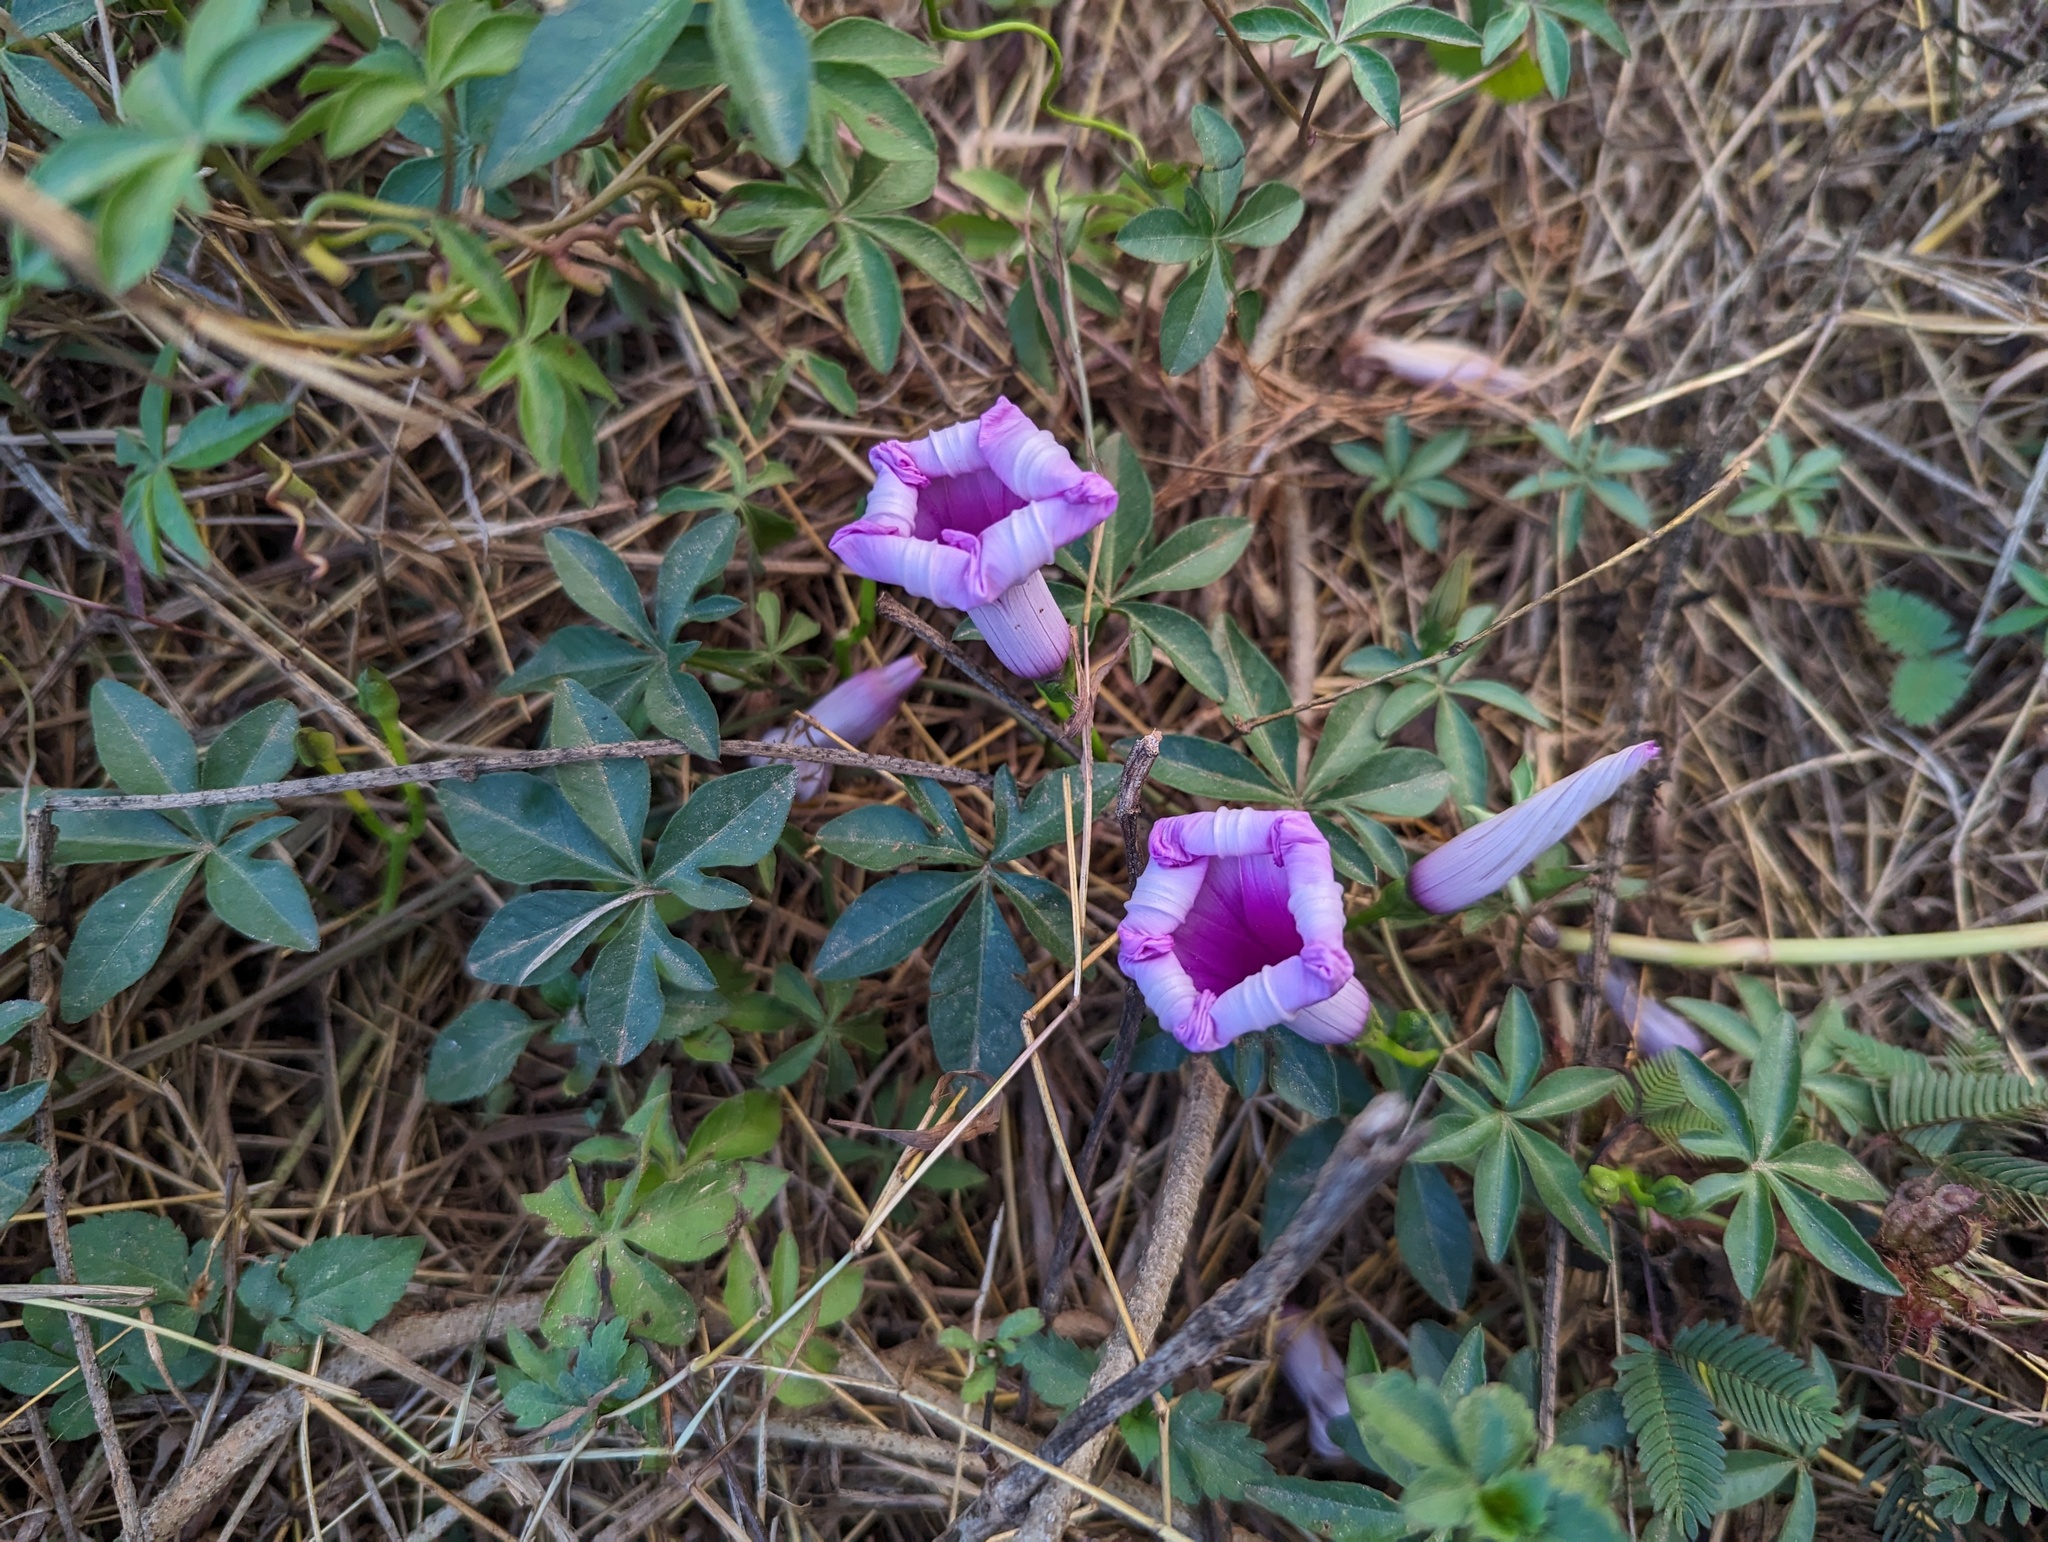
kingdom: Plantae
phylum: Tracheophyta
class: Magnoliopsida
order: Solanales
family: Convolvulaceae
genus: Ipomoea
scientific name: Ipomoea cairica
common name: Mile a minute vine
